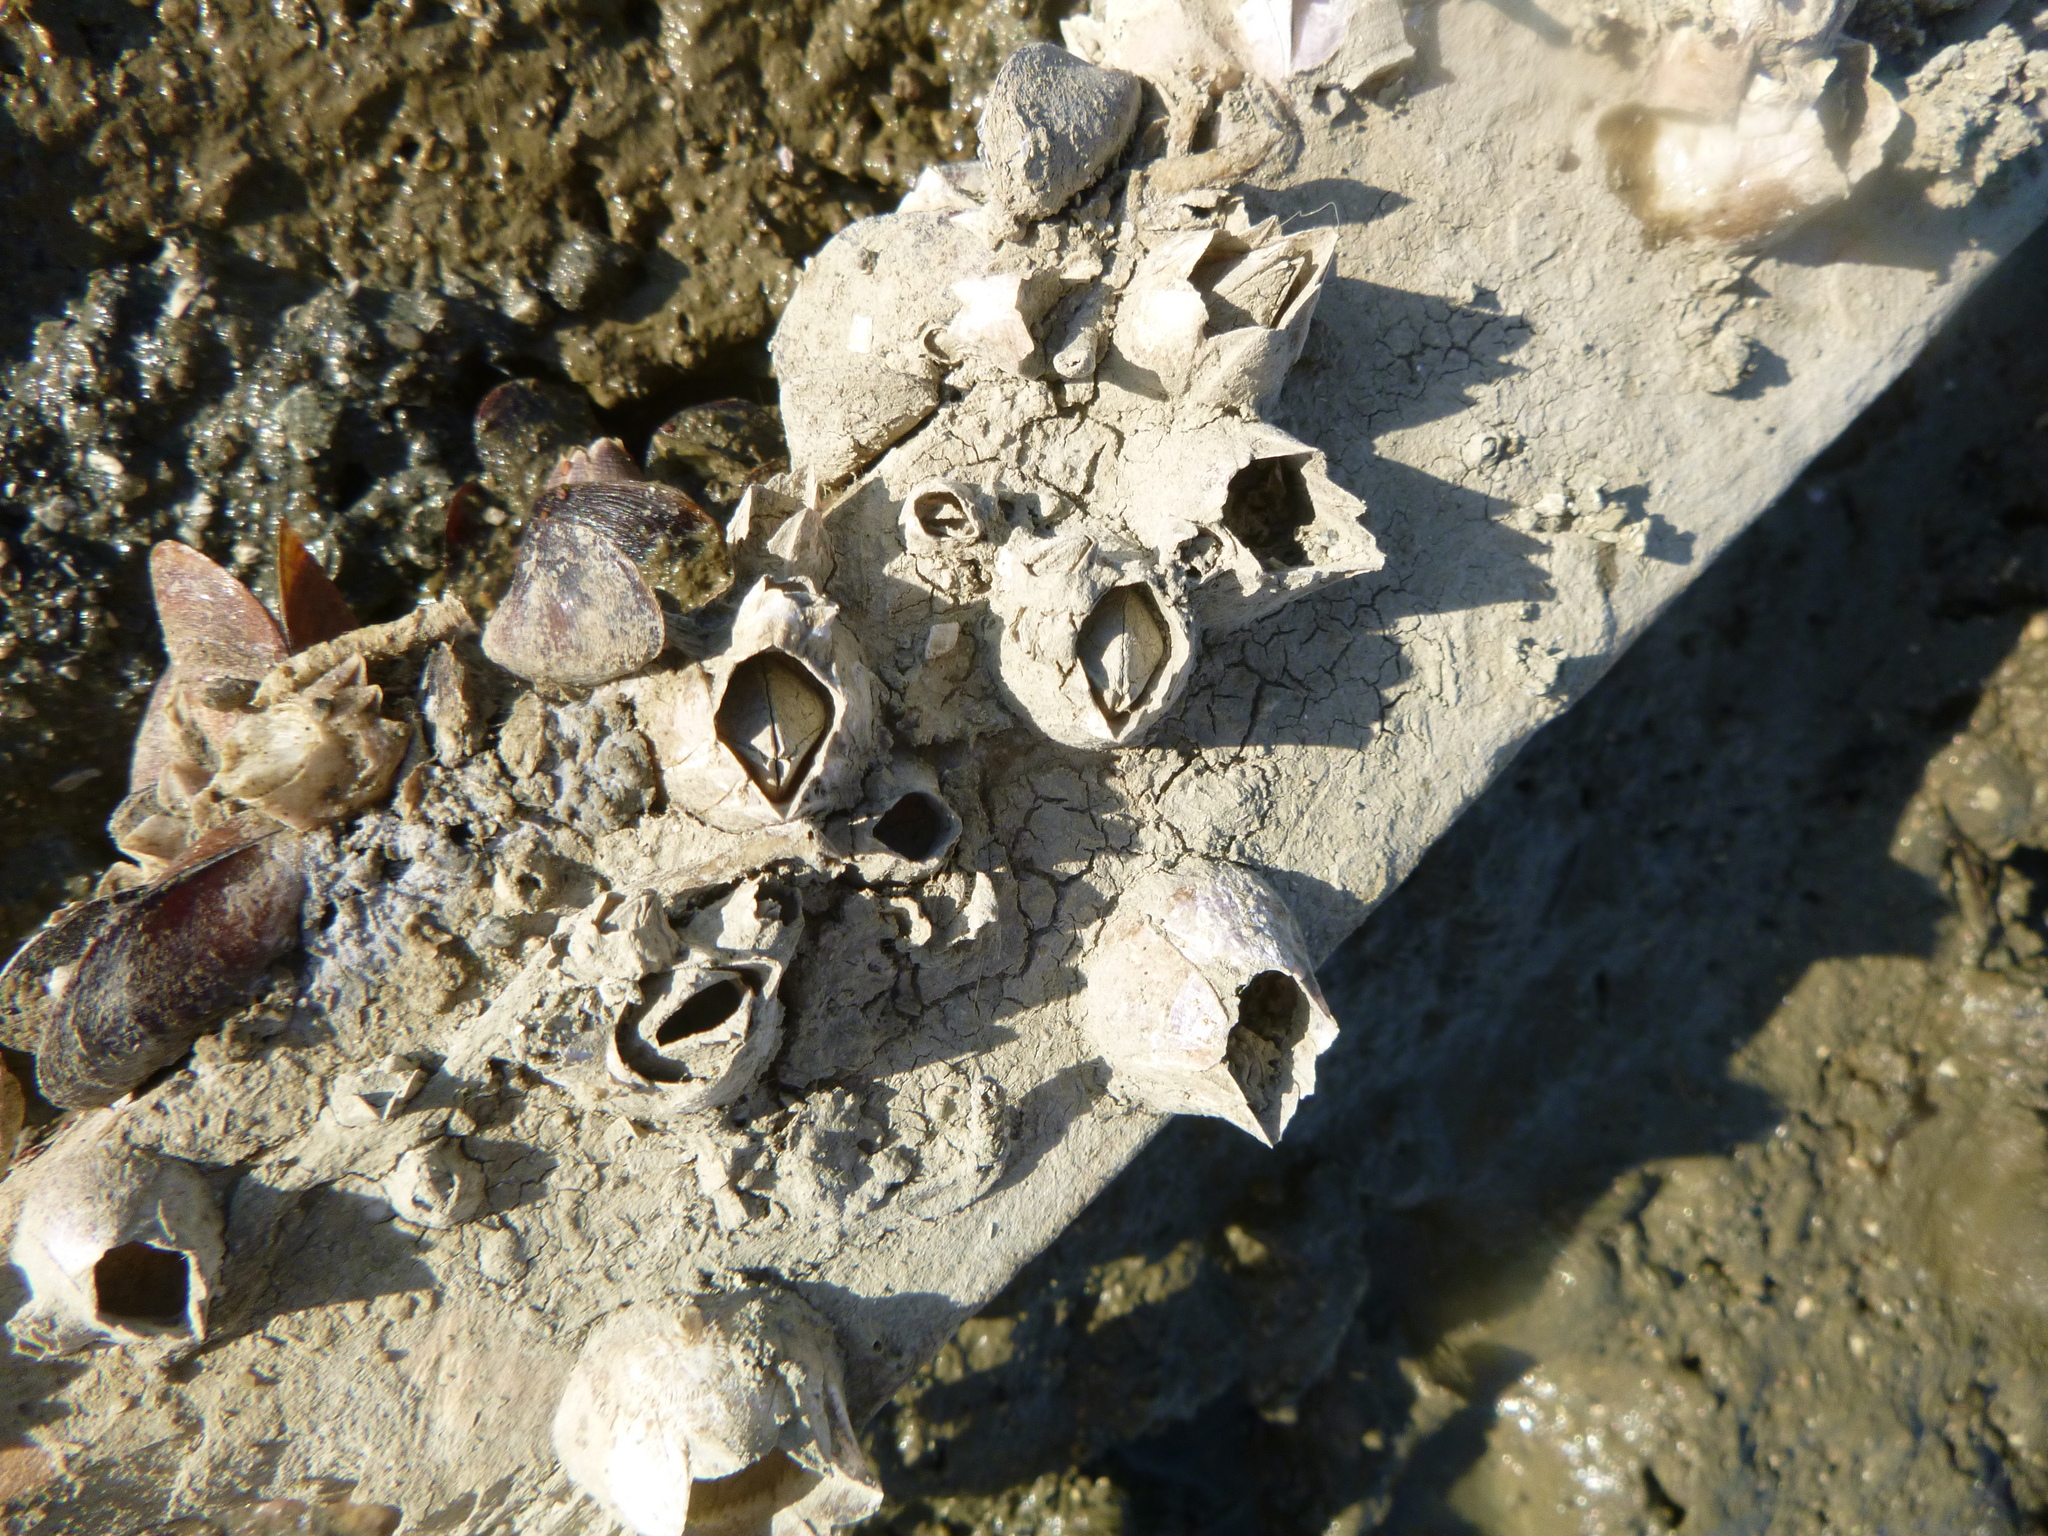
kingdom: Animalia
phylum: Arthropoda
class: Maxillopoda
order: Sessilia
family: Balanidae
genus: Fistulobalanus
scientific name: Fistulobalanus kondakovi
